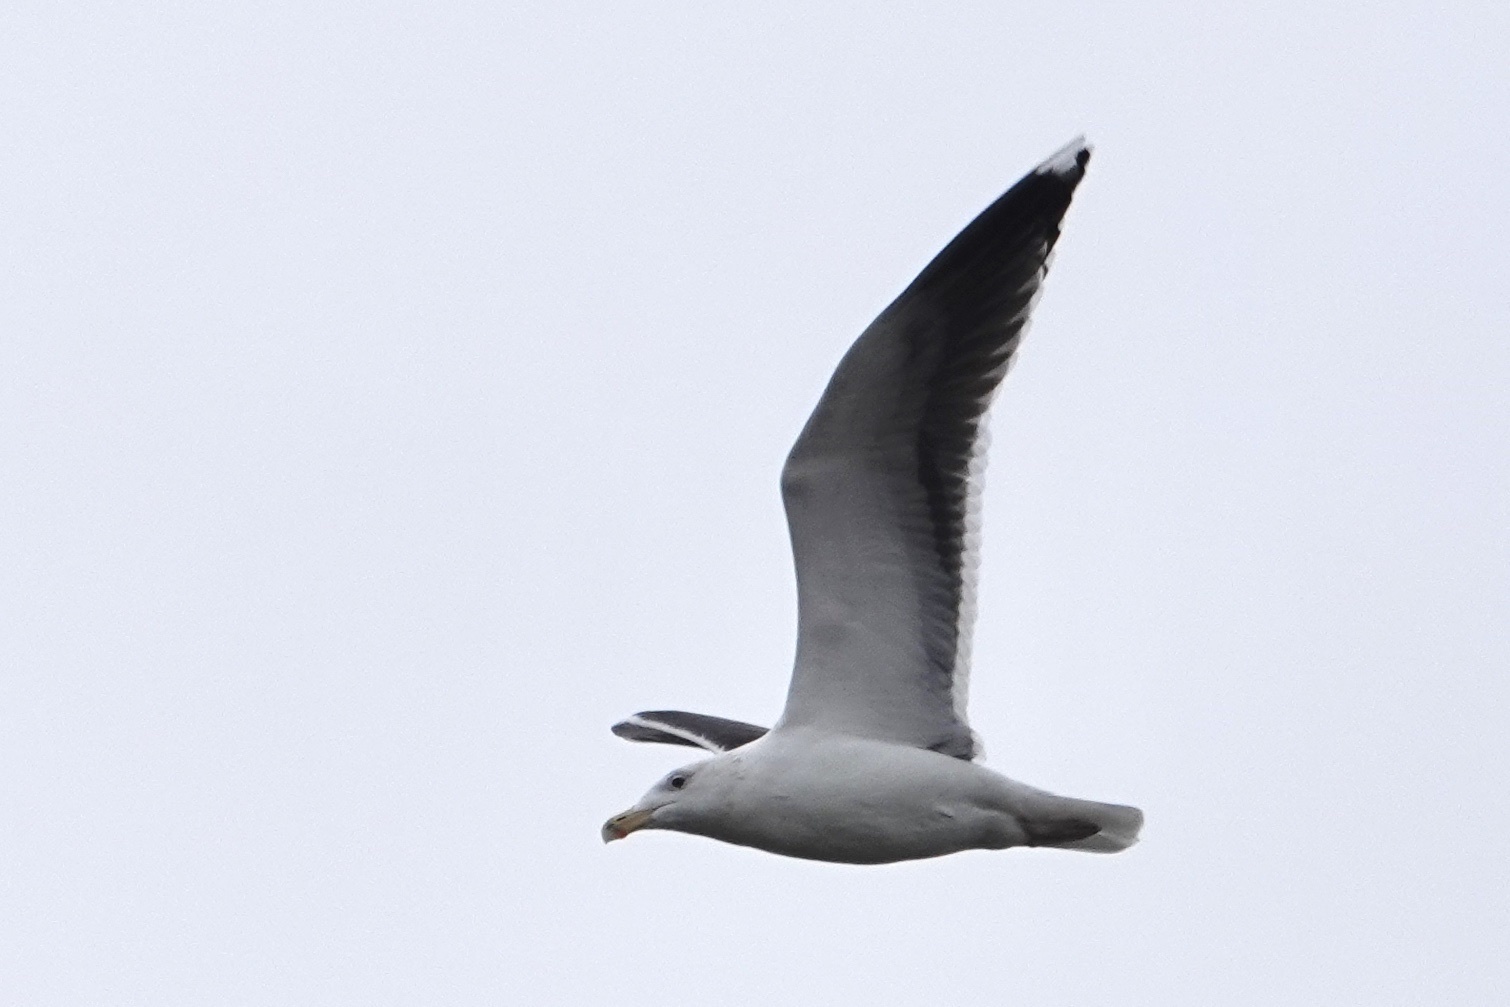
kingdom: Animalia
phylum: Chordata
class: Aves
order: Charadriiformes
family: Laridae
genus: Larus
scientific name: Larus marinus
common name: Great black-backed gull
